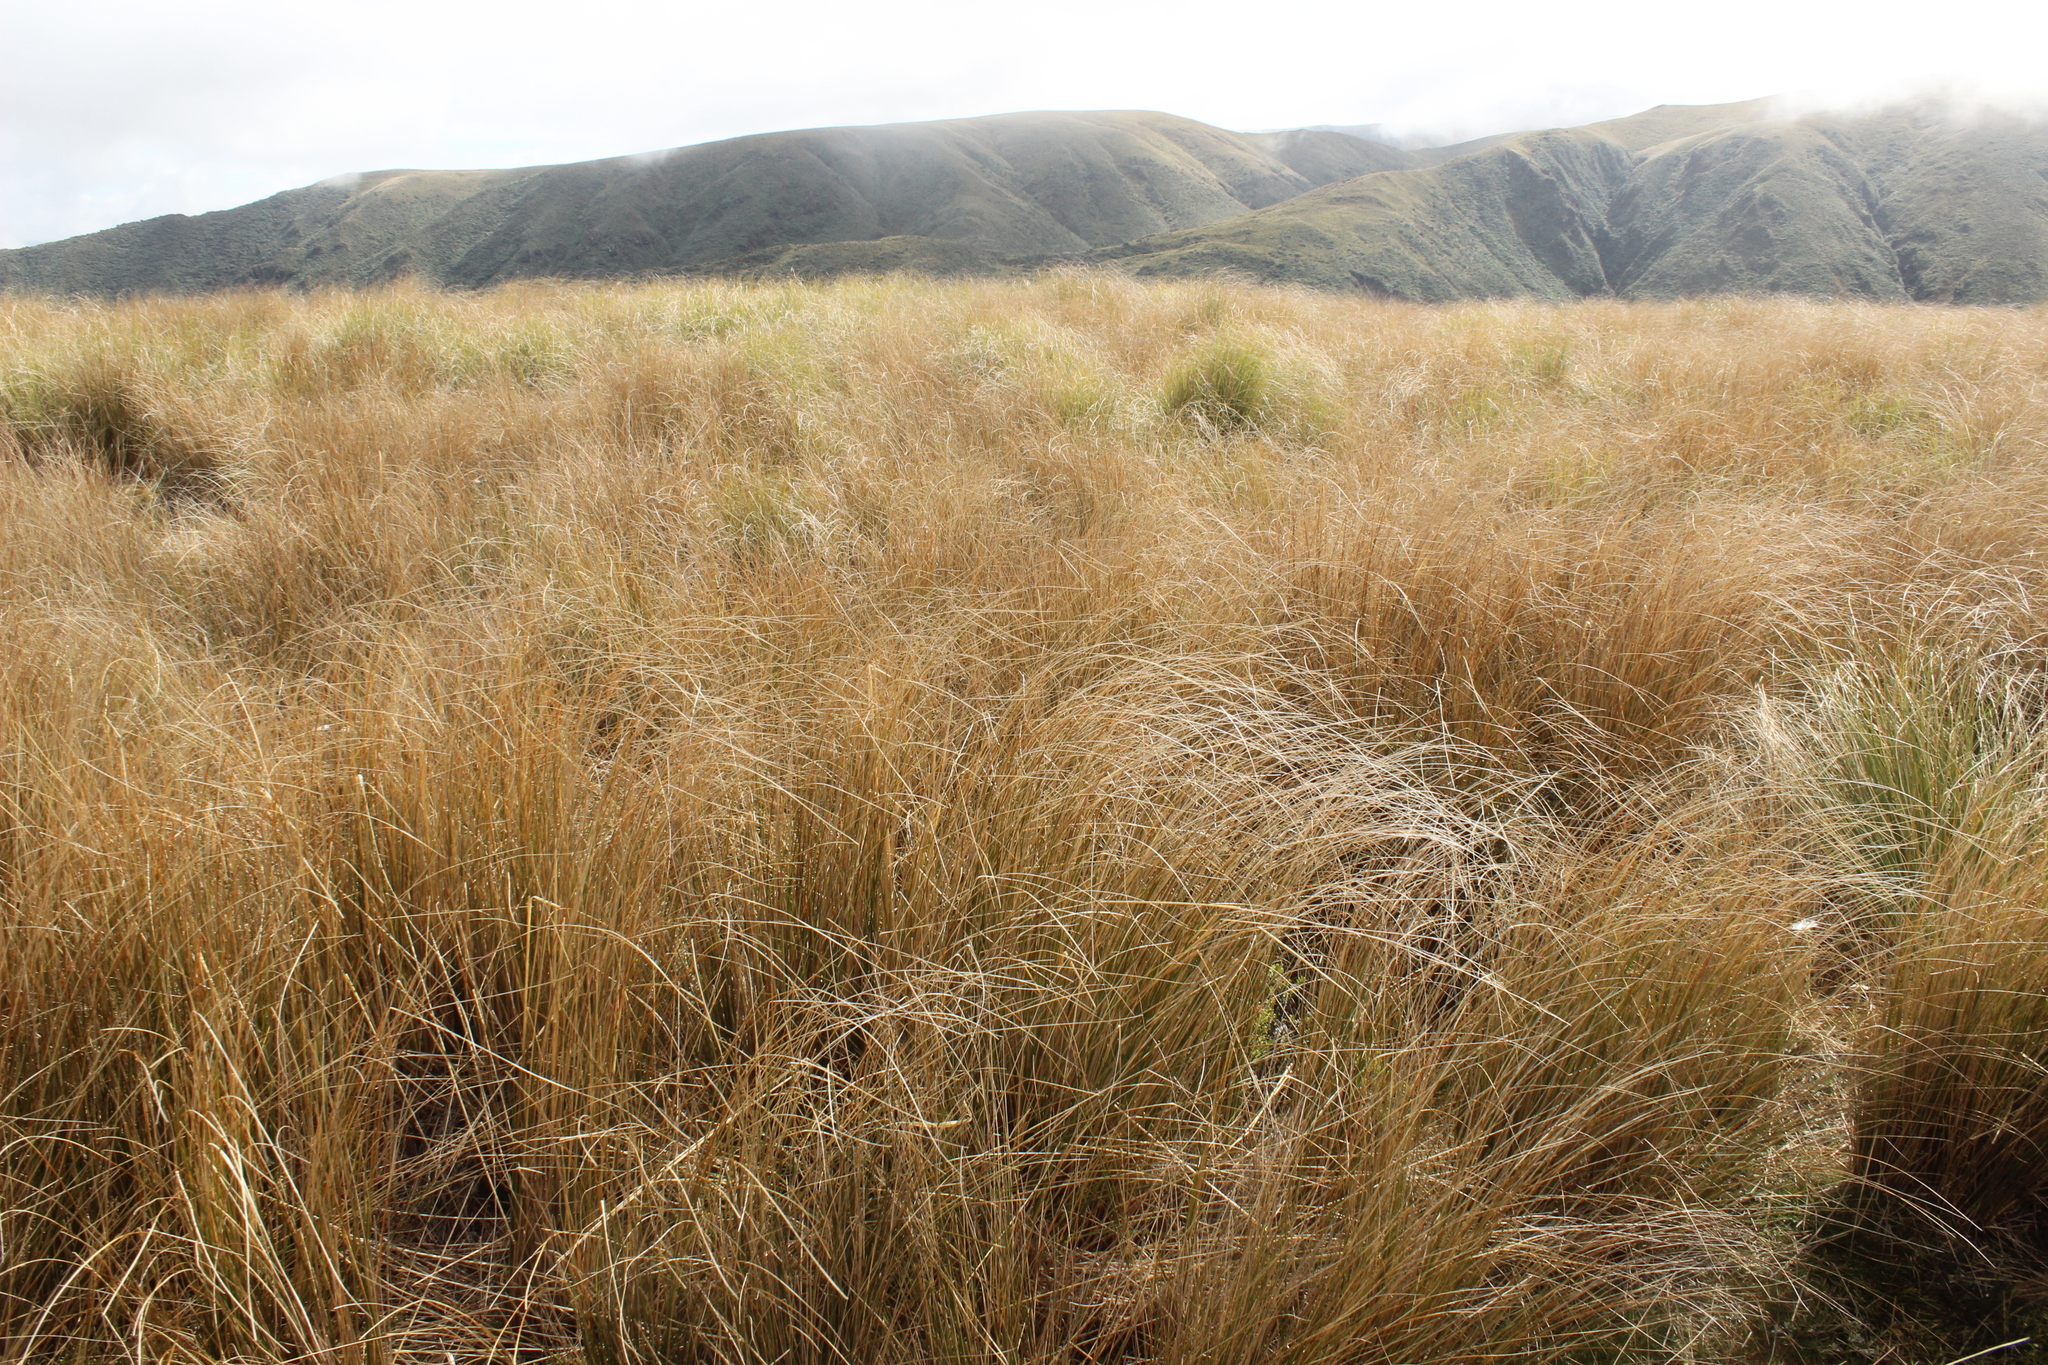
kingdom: Plantae
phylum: Tracheophyta
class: Liliopsida
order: Poales
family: Poaceae
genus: Chionochloa
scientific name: Chionochloa rubra
